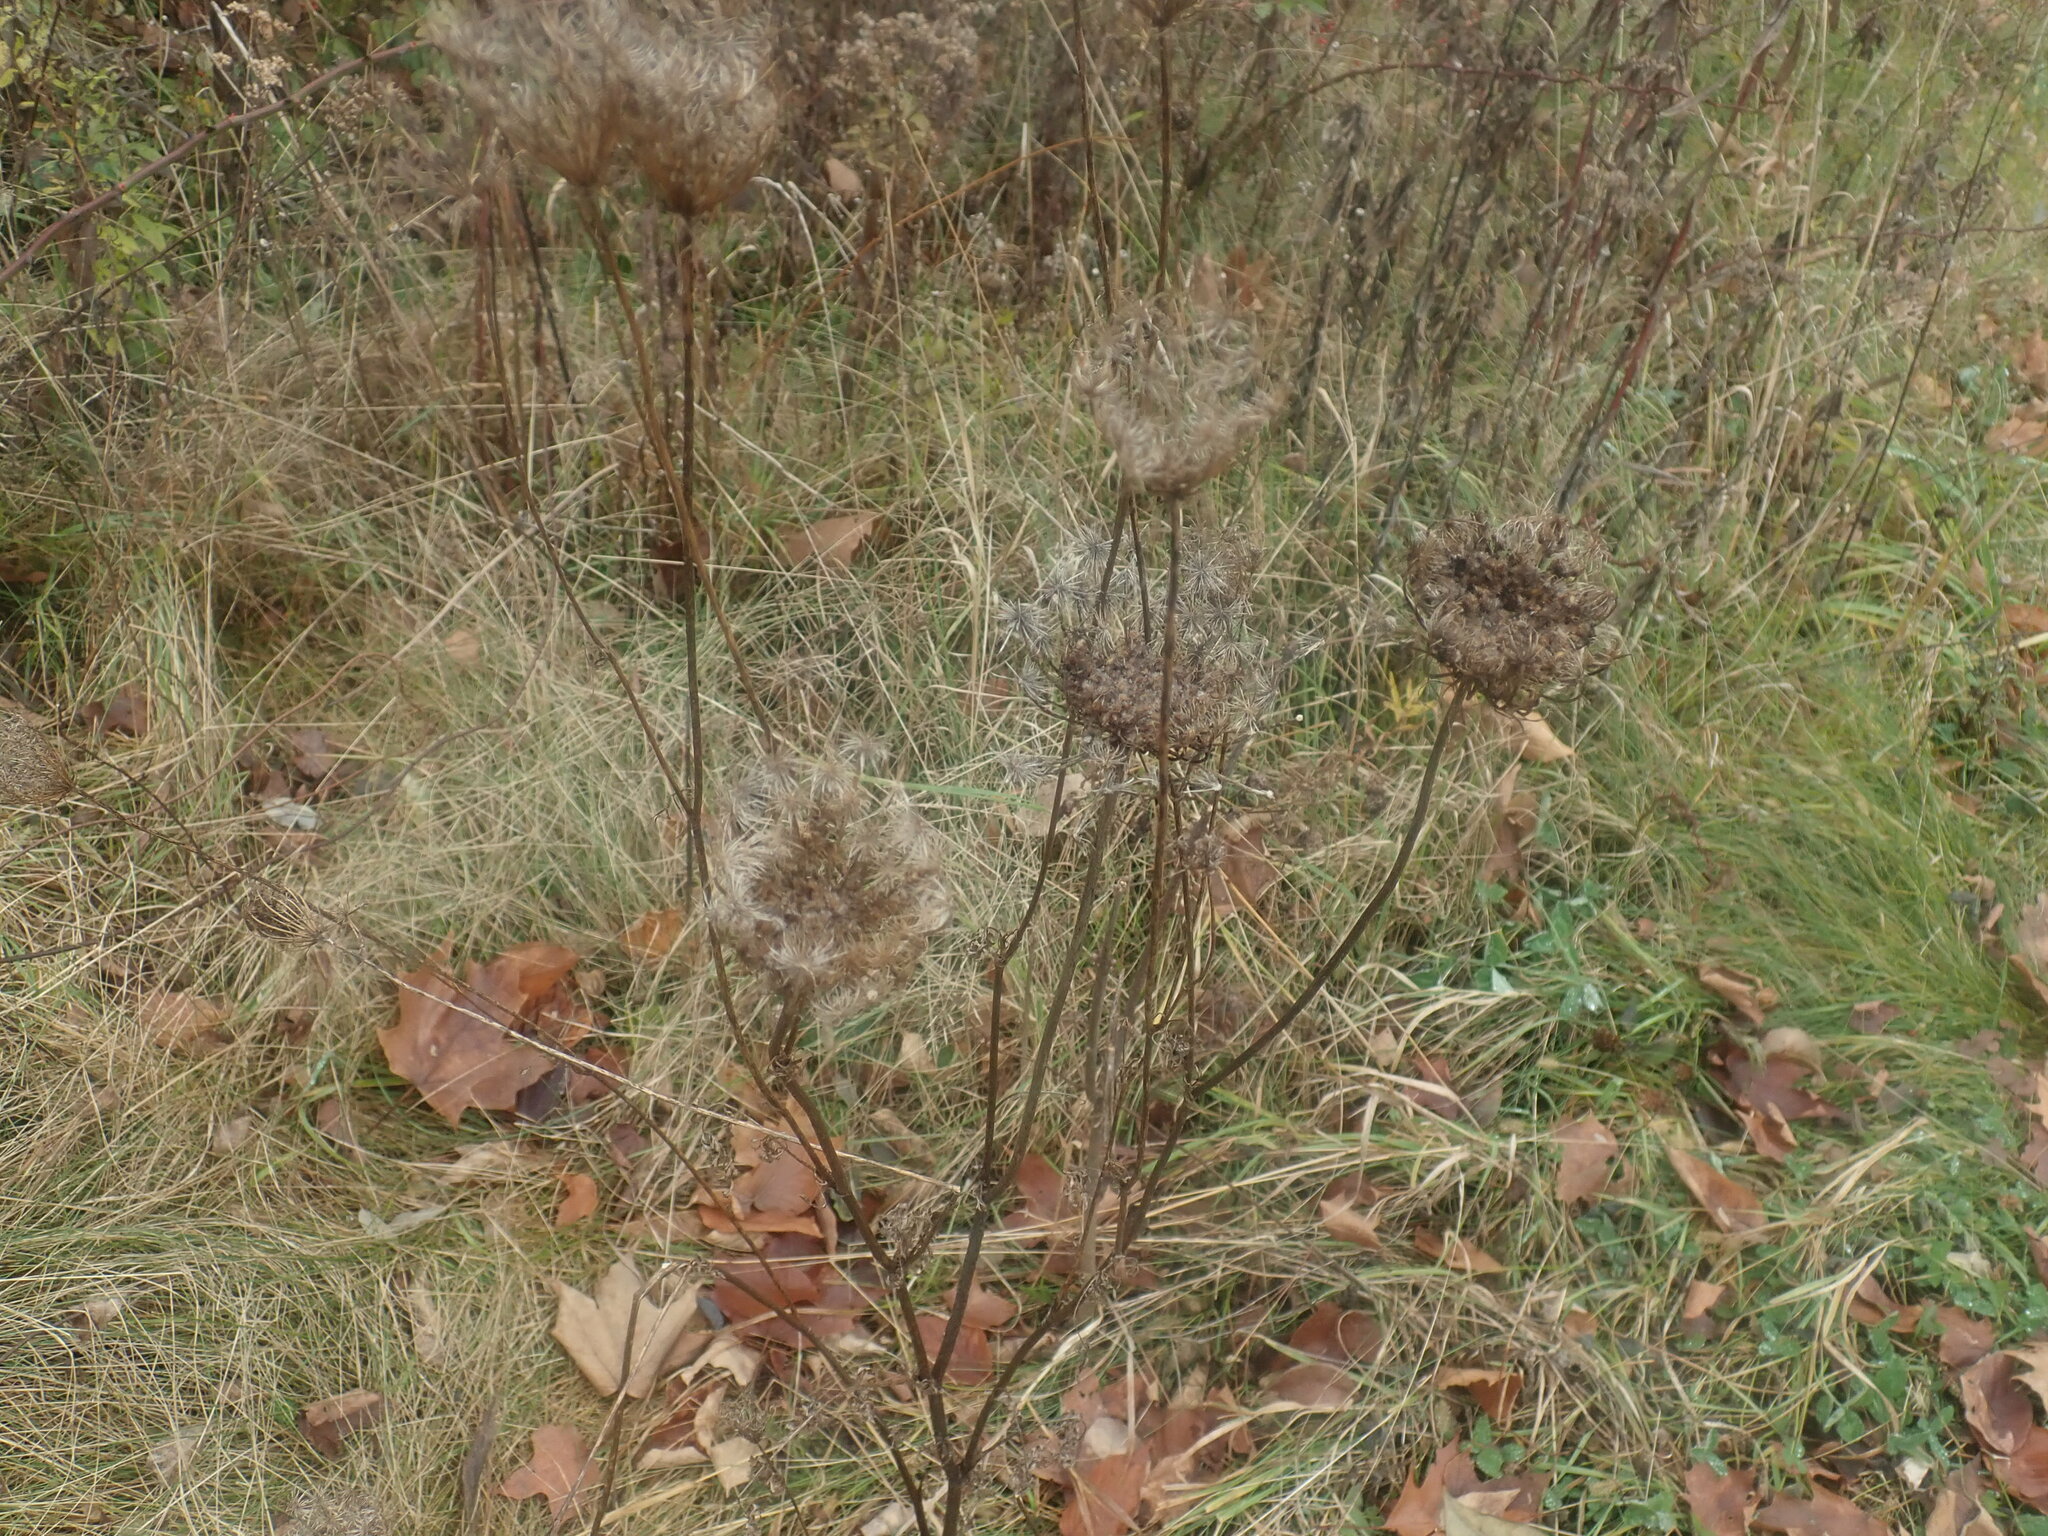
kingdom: Plantae
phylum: Tracheophyta
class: Magnoliopsida
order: Apiales
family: Apiaceae
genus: Daucus
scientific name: Daucus carota
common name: Wild carrot
